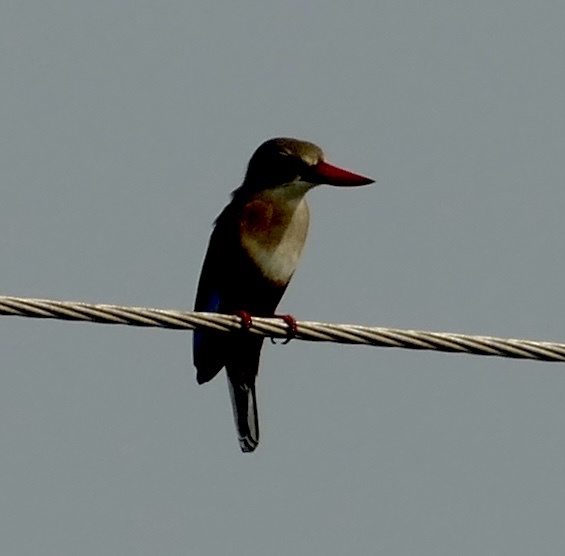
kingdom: Animalia
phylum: Chordata
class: Aves
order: Coraciiformes
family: Alcedinidae
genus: Halcyon
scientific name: Halcyon leucocephala
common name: Grey-headed kingfisher
